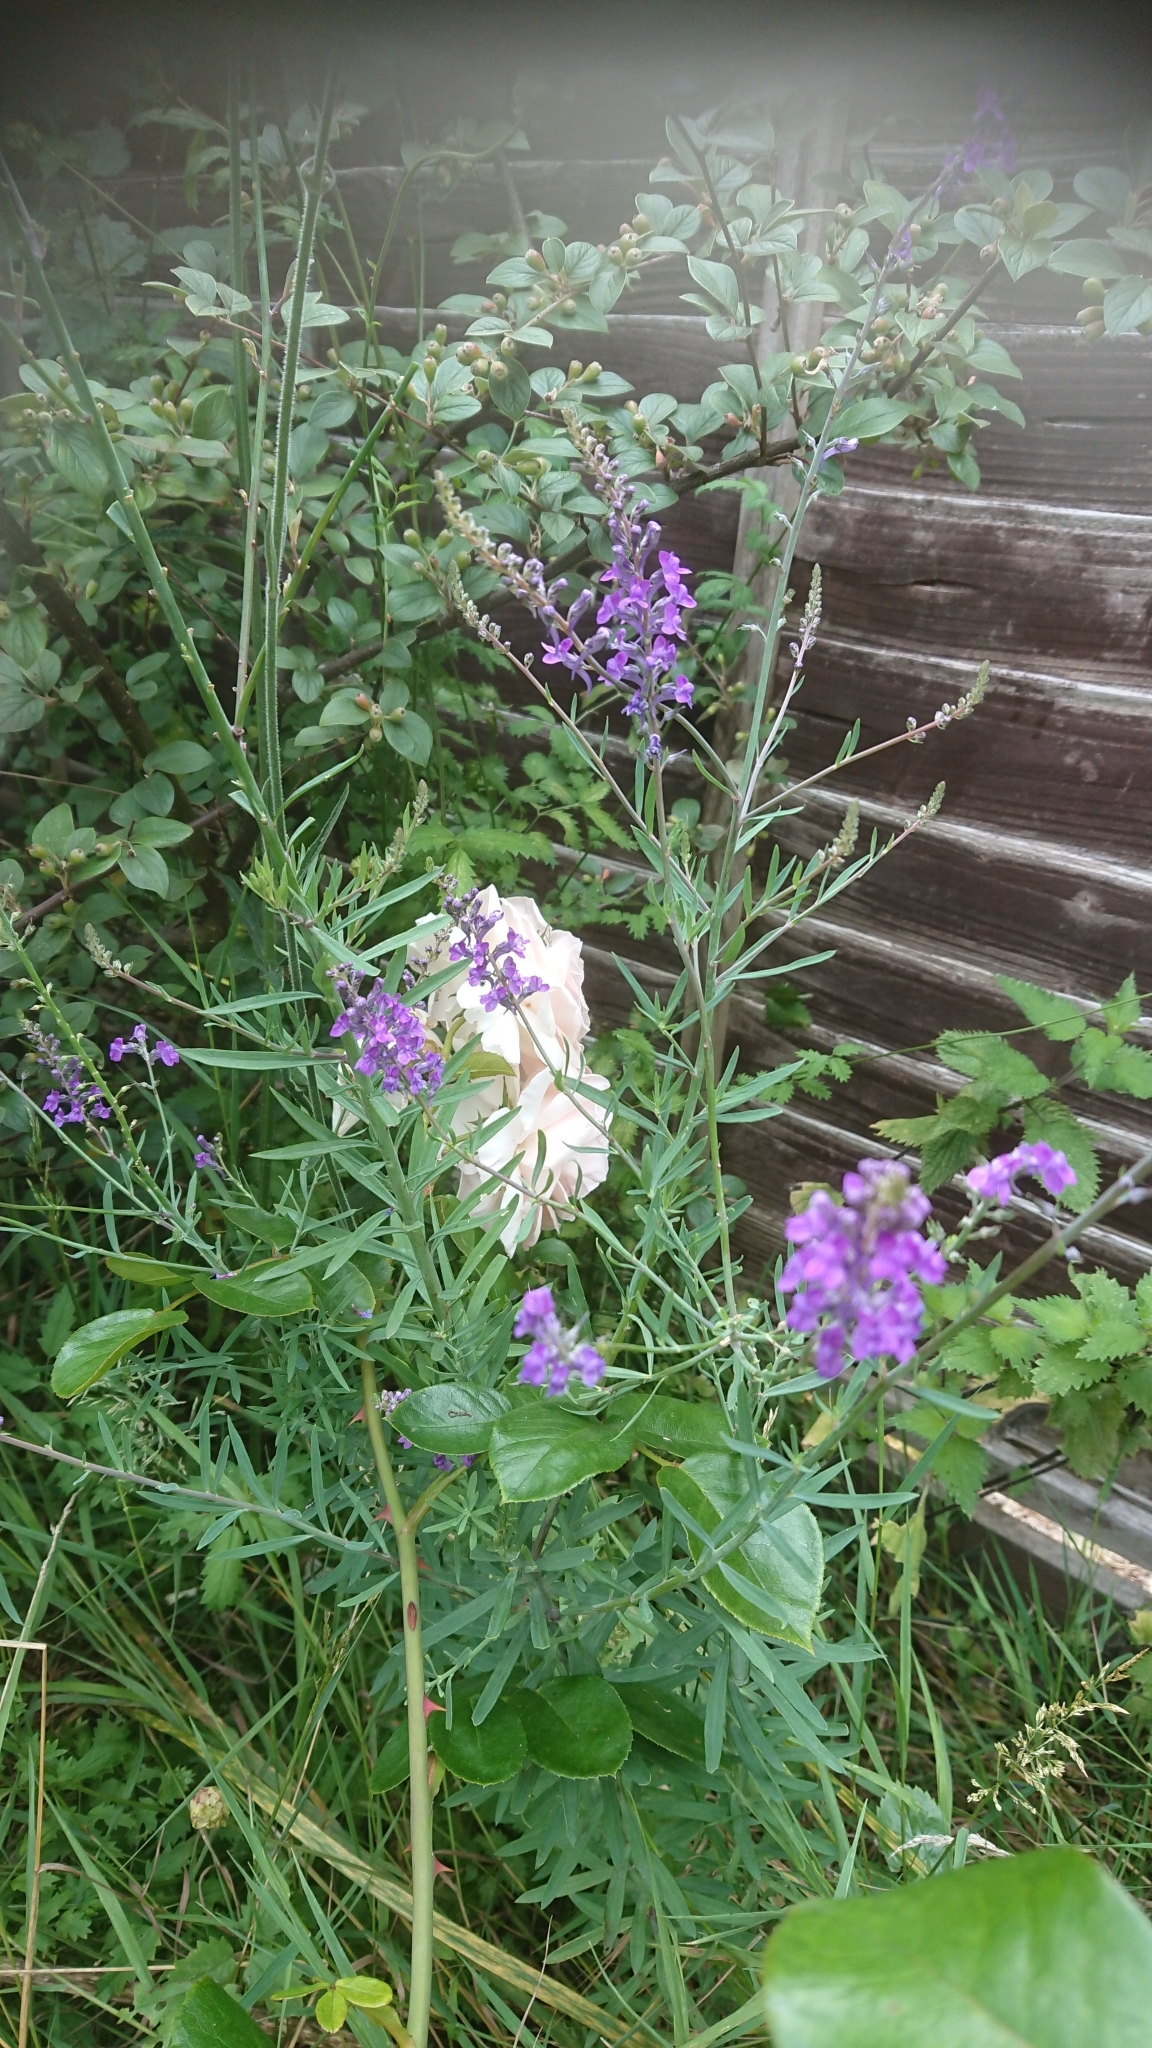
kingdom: Plantae
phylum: Tracheophyta
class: Magnoliopsida
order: Lamiales
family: Plantaginaceae
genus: Linaria
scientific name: Linaria purpurea
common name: Purple toadflax
